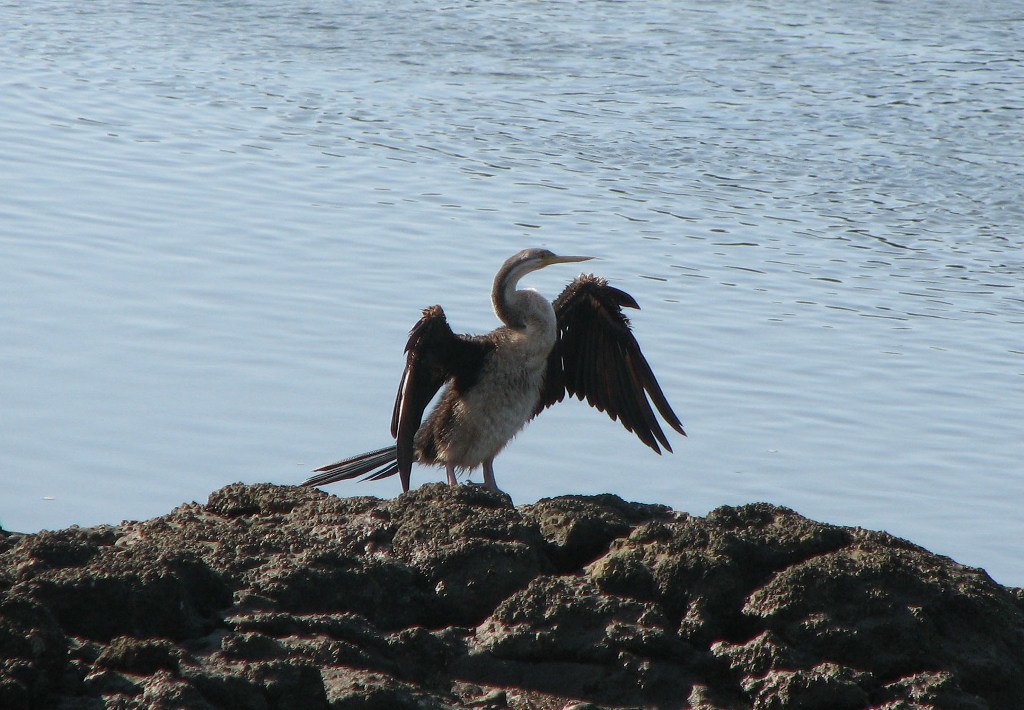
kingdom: Animalia
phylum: Chordata
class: Aves
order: Suliformes
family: Anhingidae
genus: Anhinga
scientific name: Anhinga novaehollandiae
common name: Australasian darter
